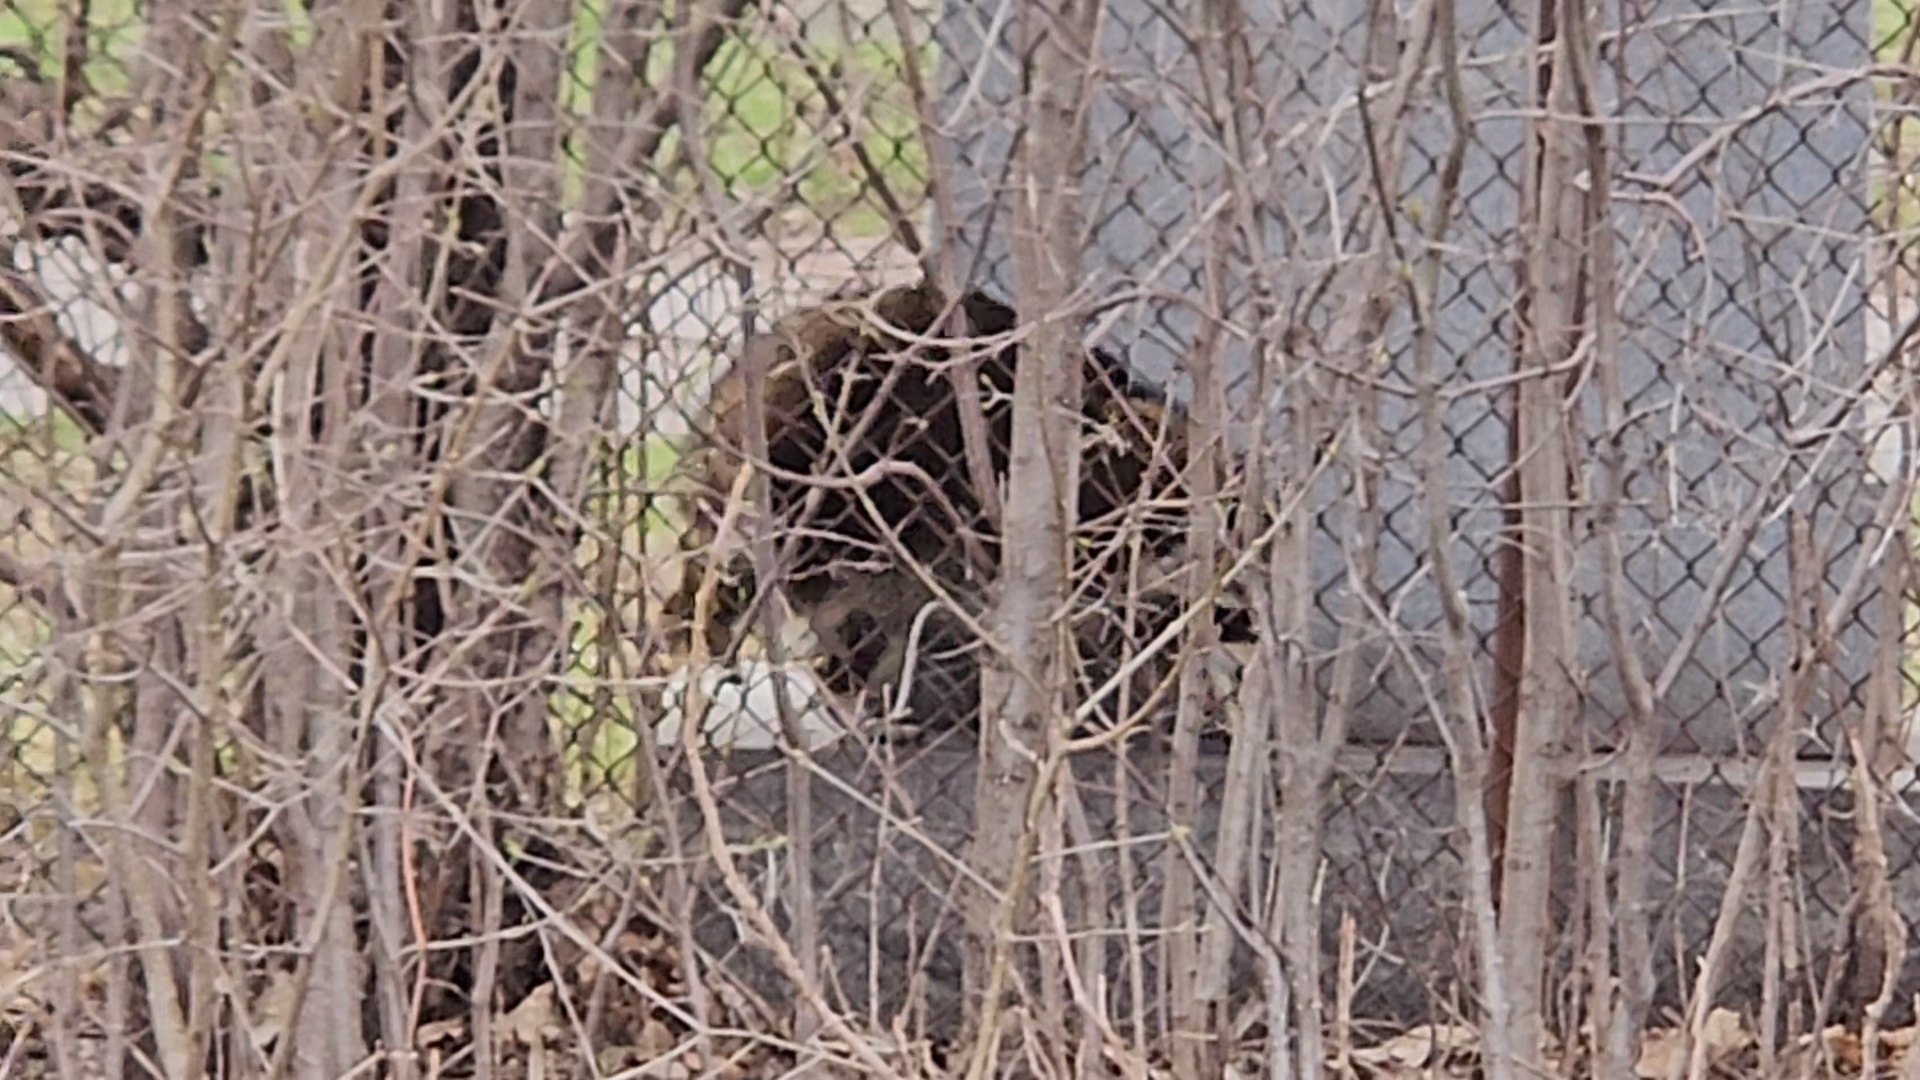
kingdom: Animalia
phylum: Chordata
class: Mammalia
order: Carnivora
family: Procyonidae
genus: Procyon
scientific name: Procyon lotor
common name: Raccoon
